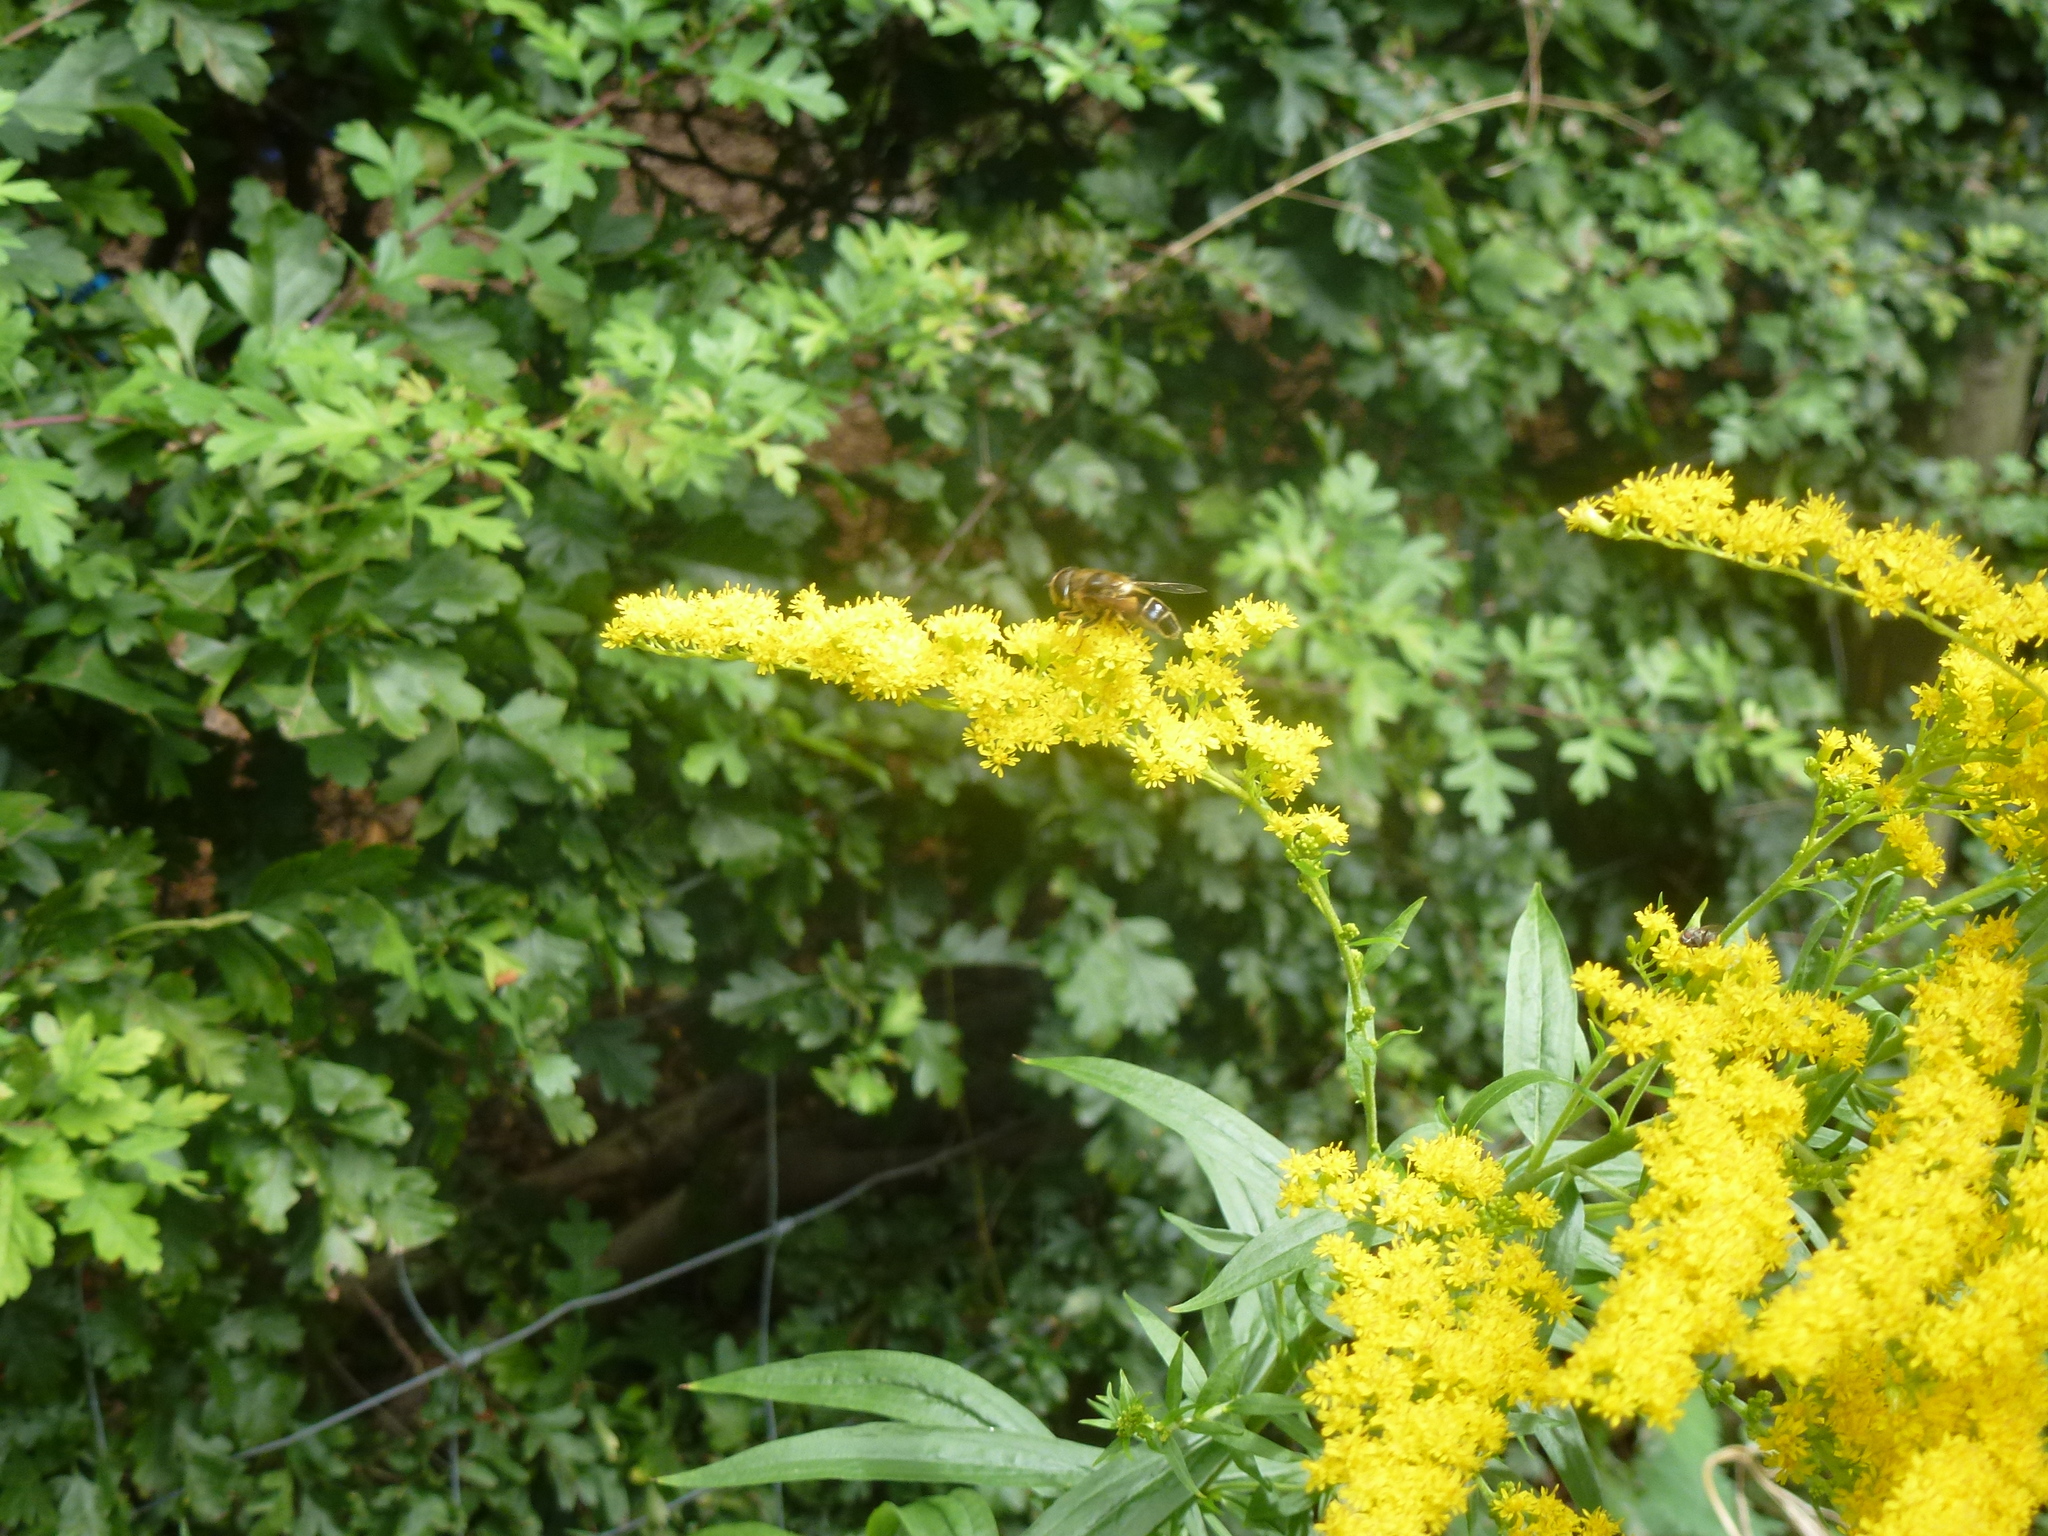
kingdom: Plantae
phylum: Tracheophyta
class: Magnoliopsida
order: Asterales
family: Asteraceae
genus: Solidago
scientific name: Solidago canadensis
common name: Canada goldenrod
